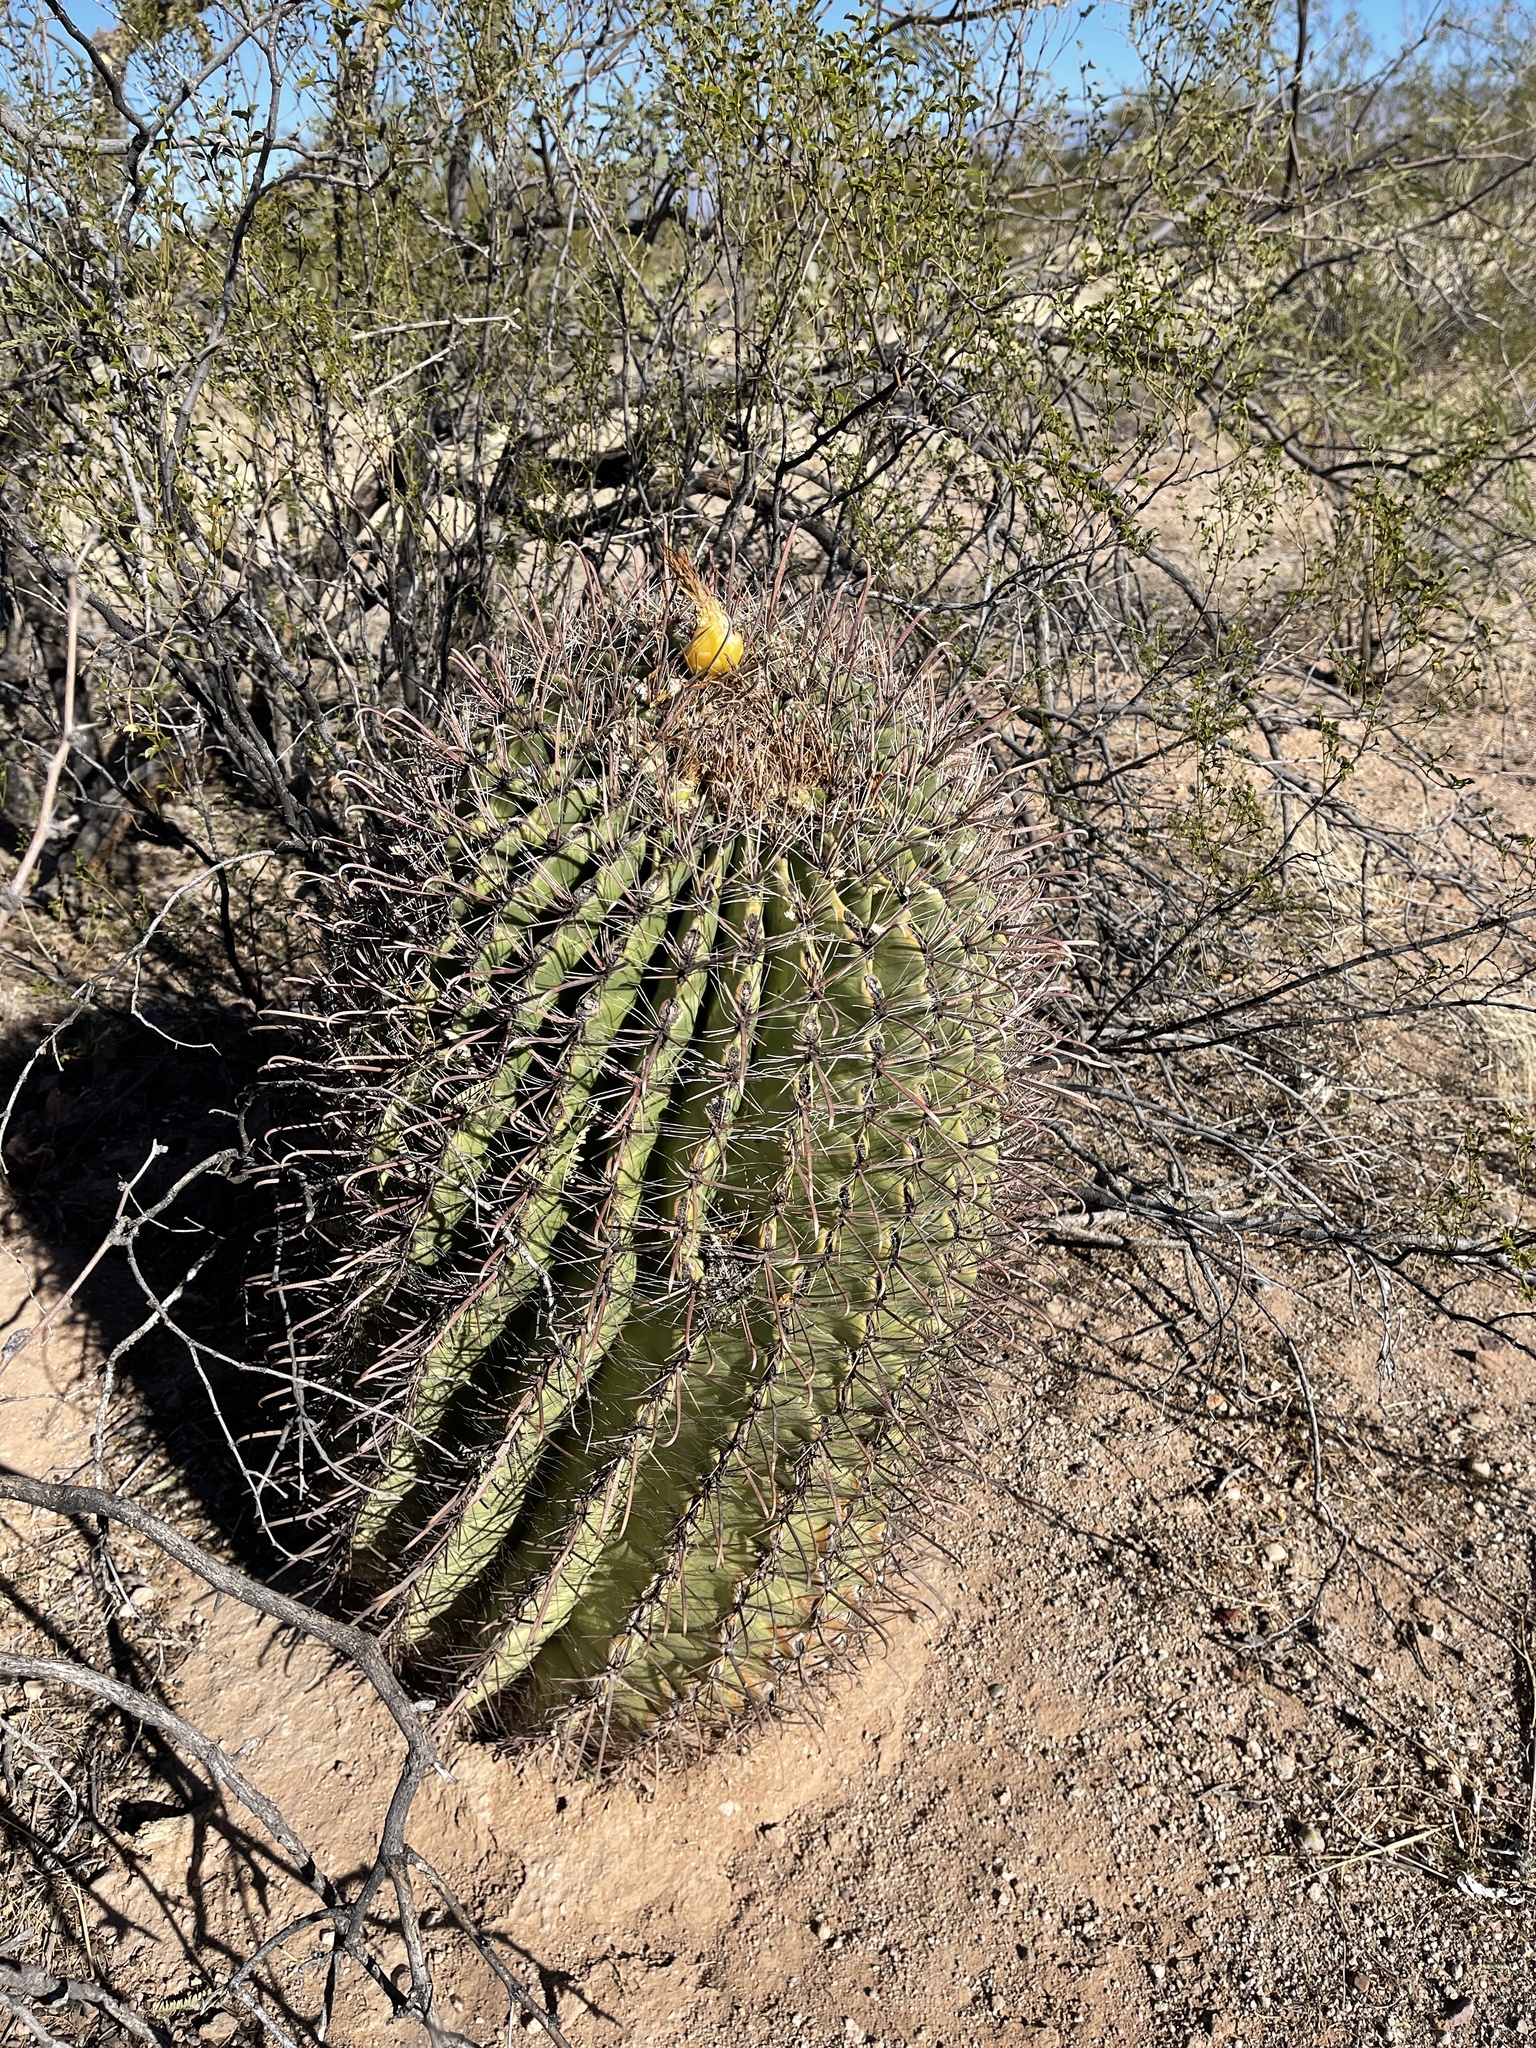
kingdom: Plantae
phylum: Tracheophyta
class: Magnoliopsida
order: Caryophyllales
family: Cactaceae
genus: Ferocactus
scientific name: Ferocactus wislizeni
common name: Candy barrel cactus
